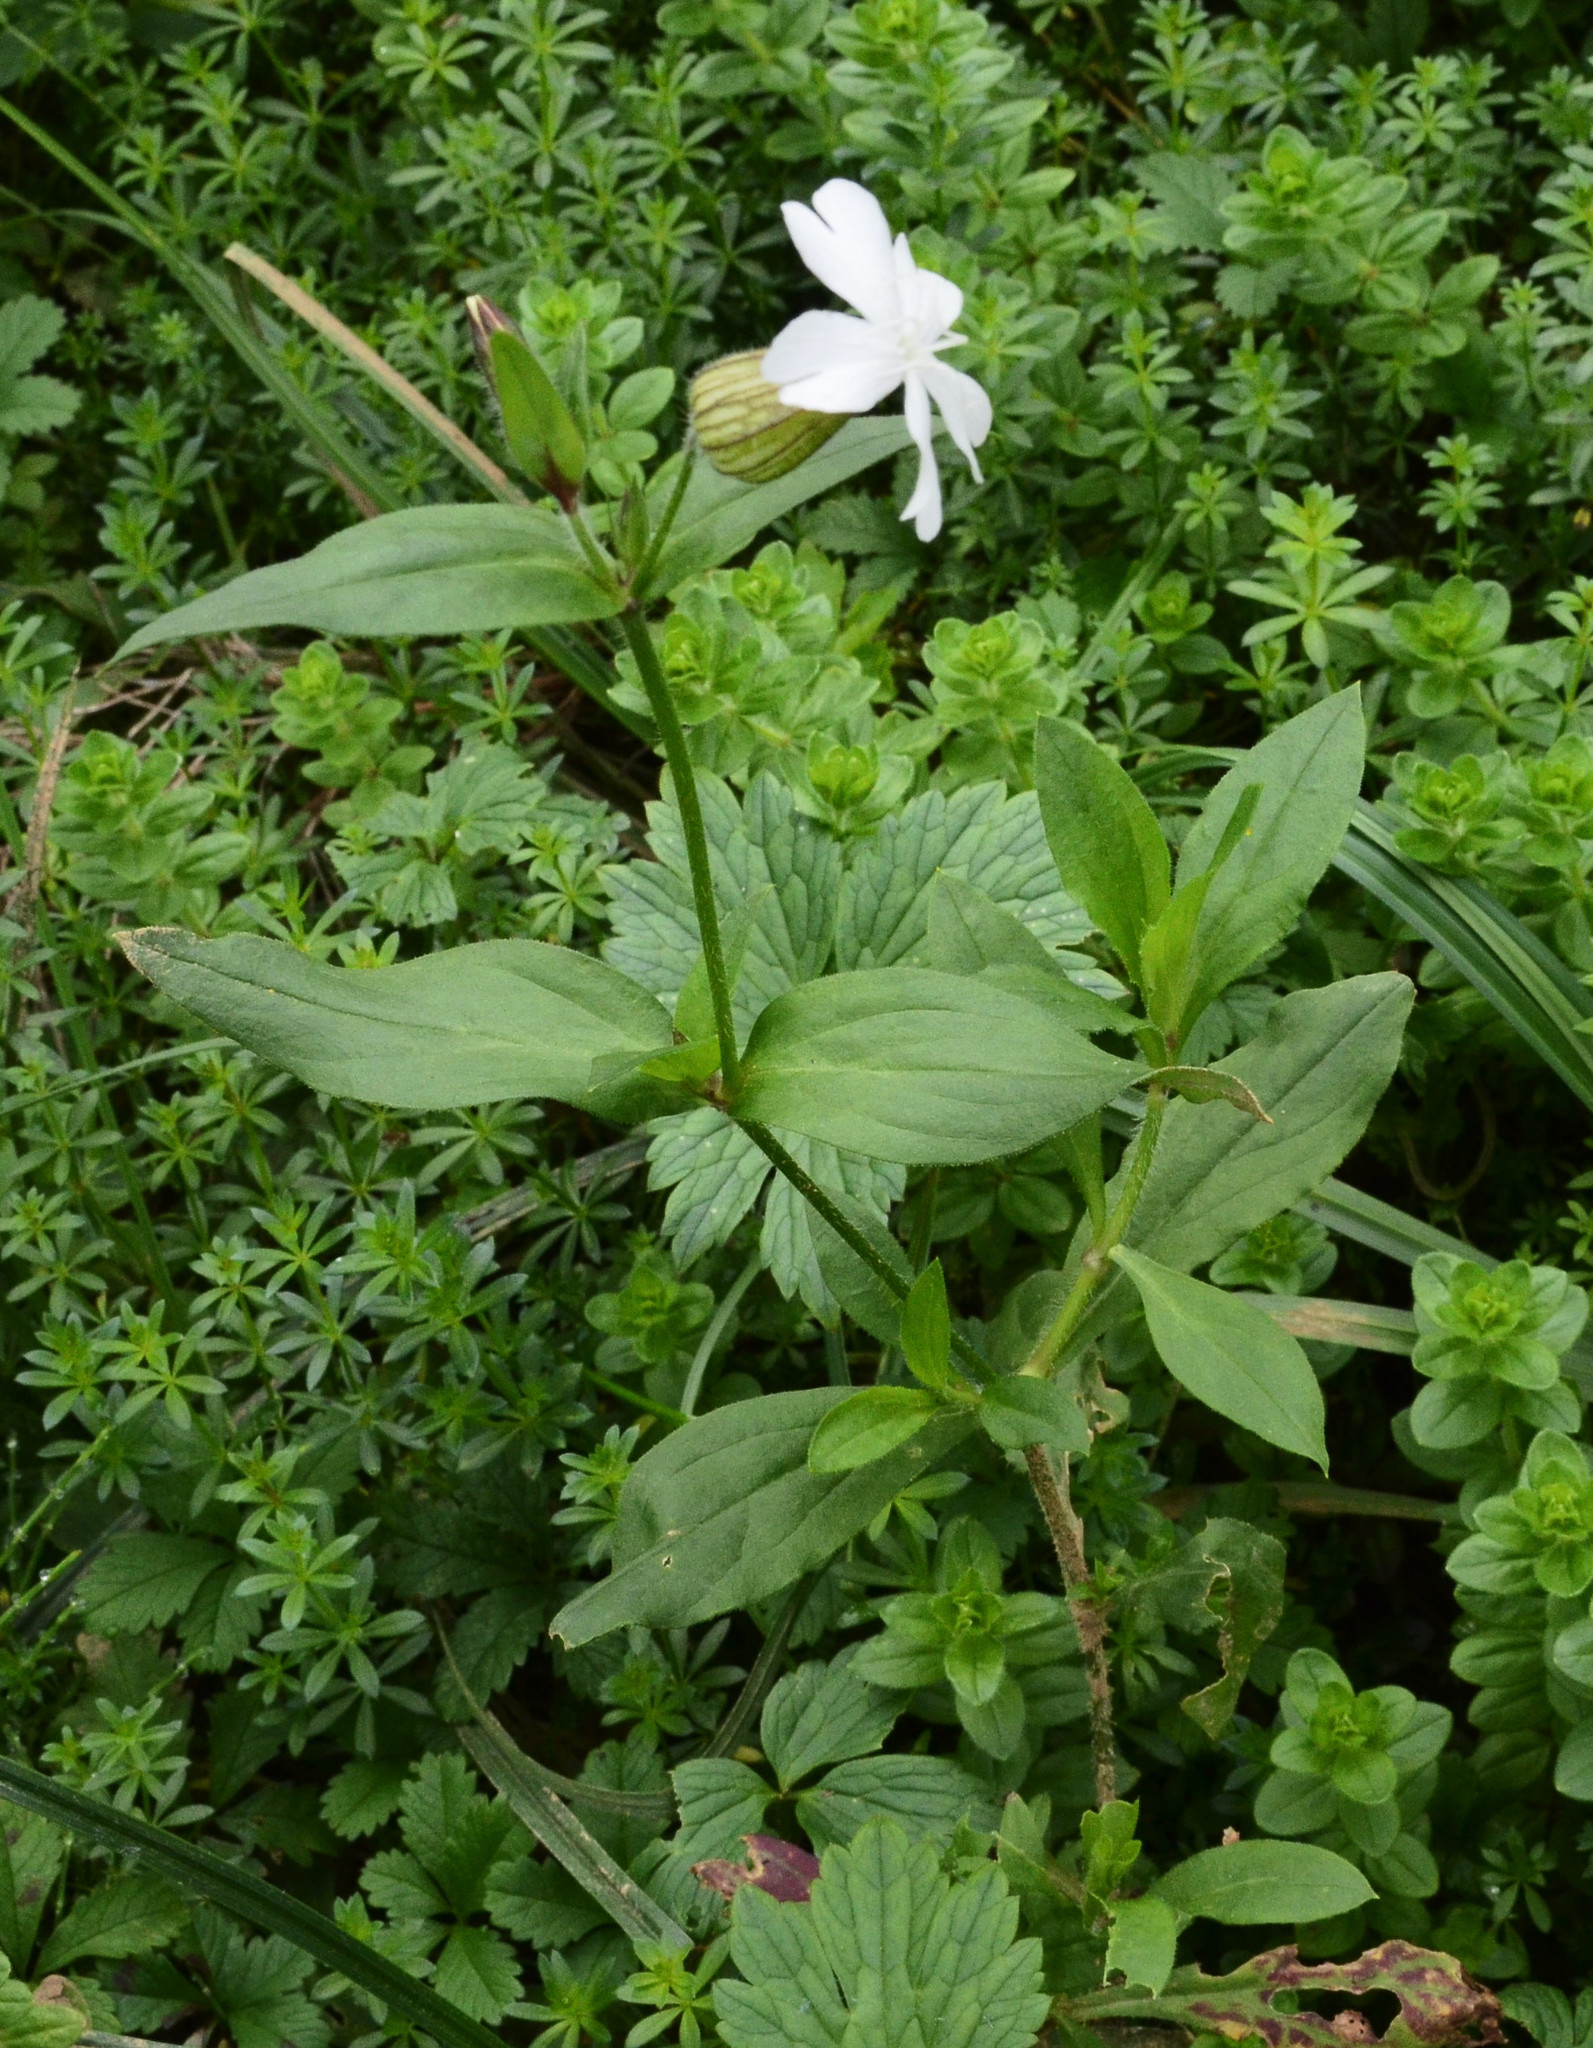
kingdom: Plantae
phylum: Tracheophyta
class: Magnoliopsida
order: Caryophyllales
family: Caryophyllaceae
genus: Silene
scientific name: Silene latifolia
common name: White campion
